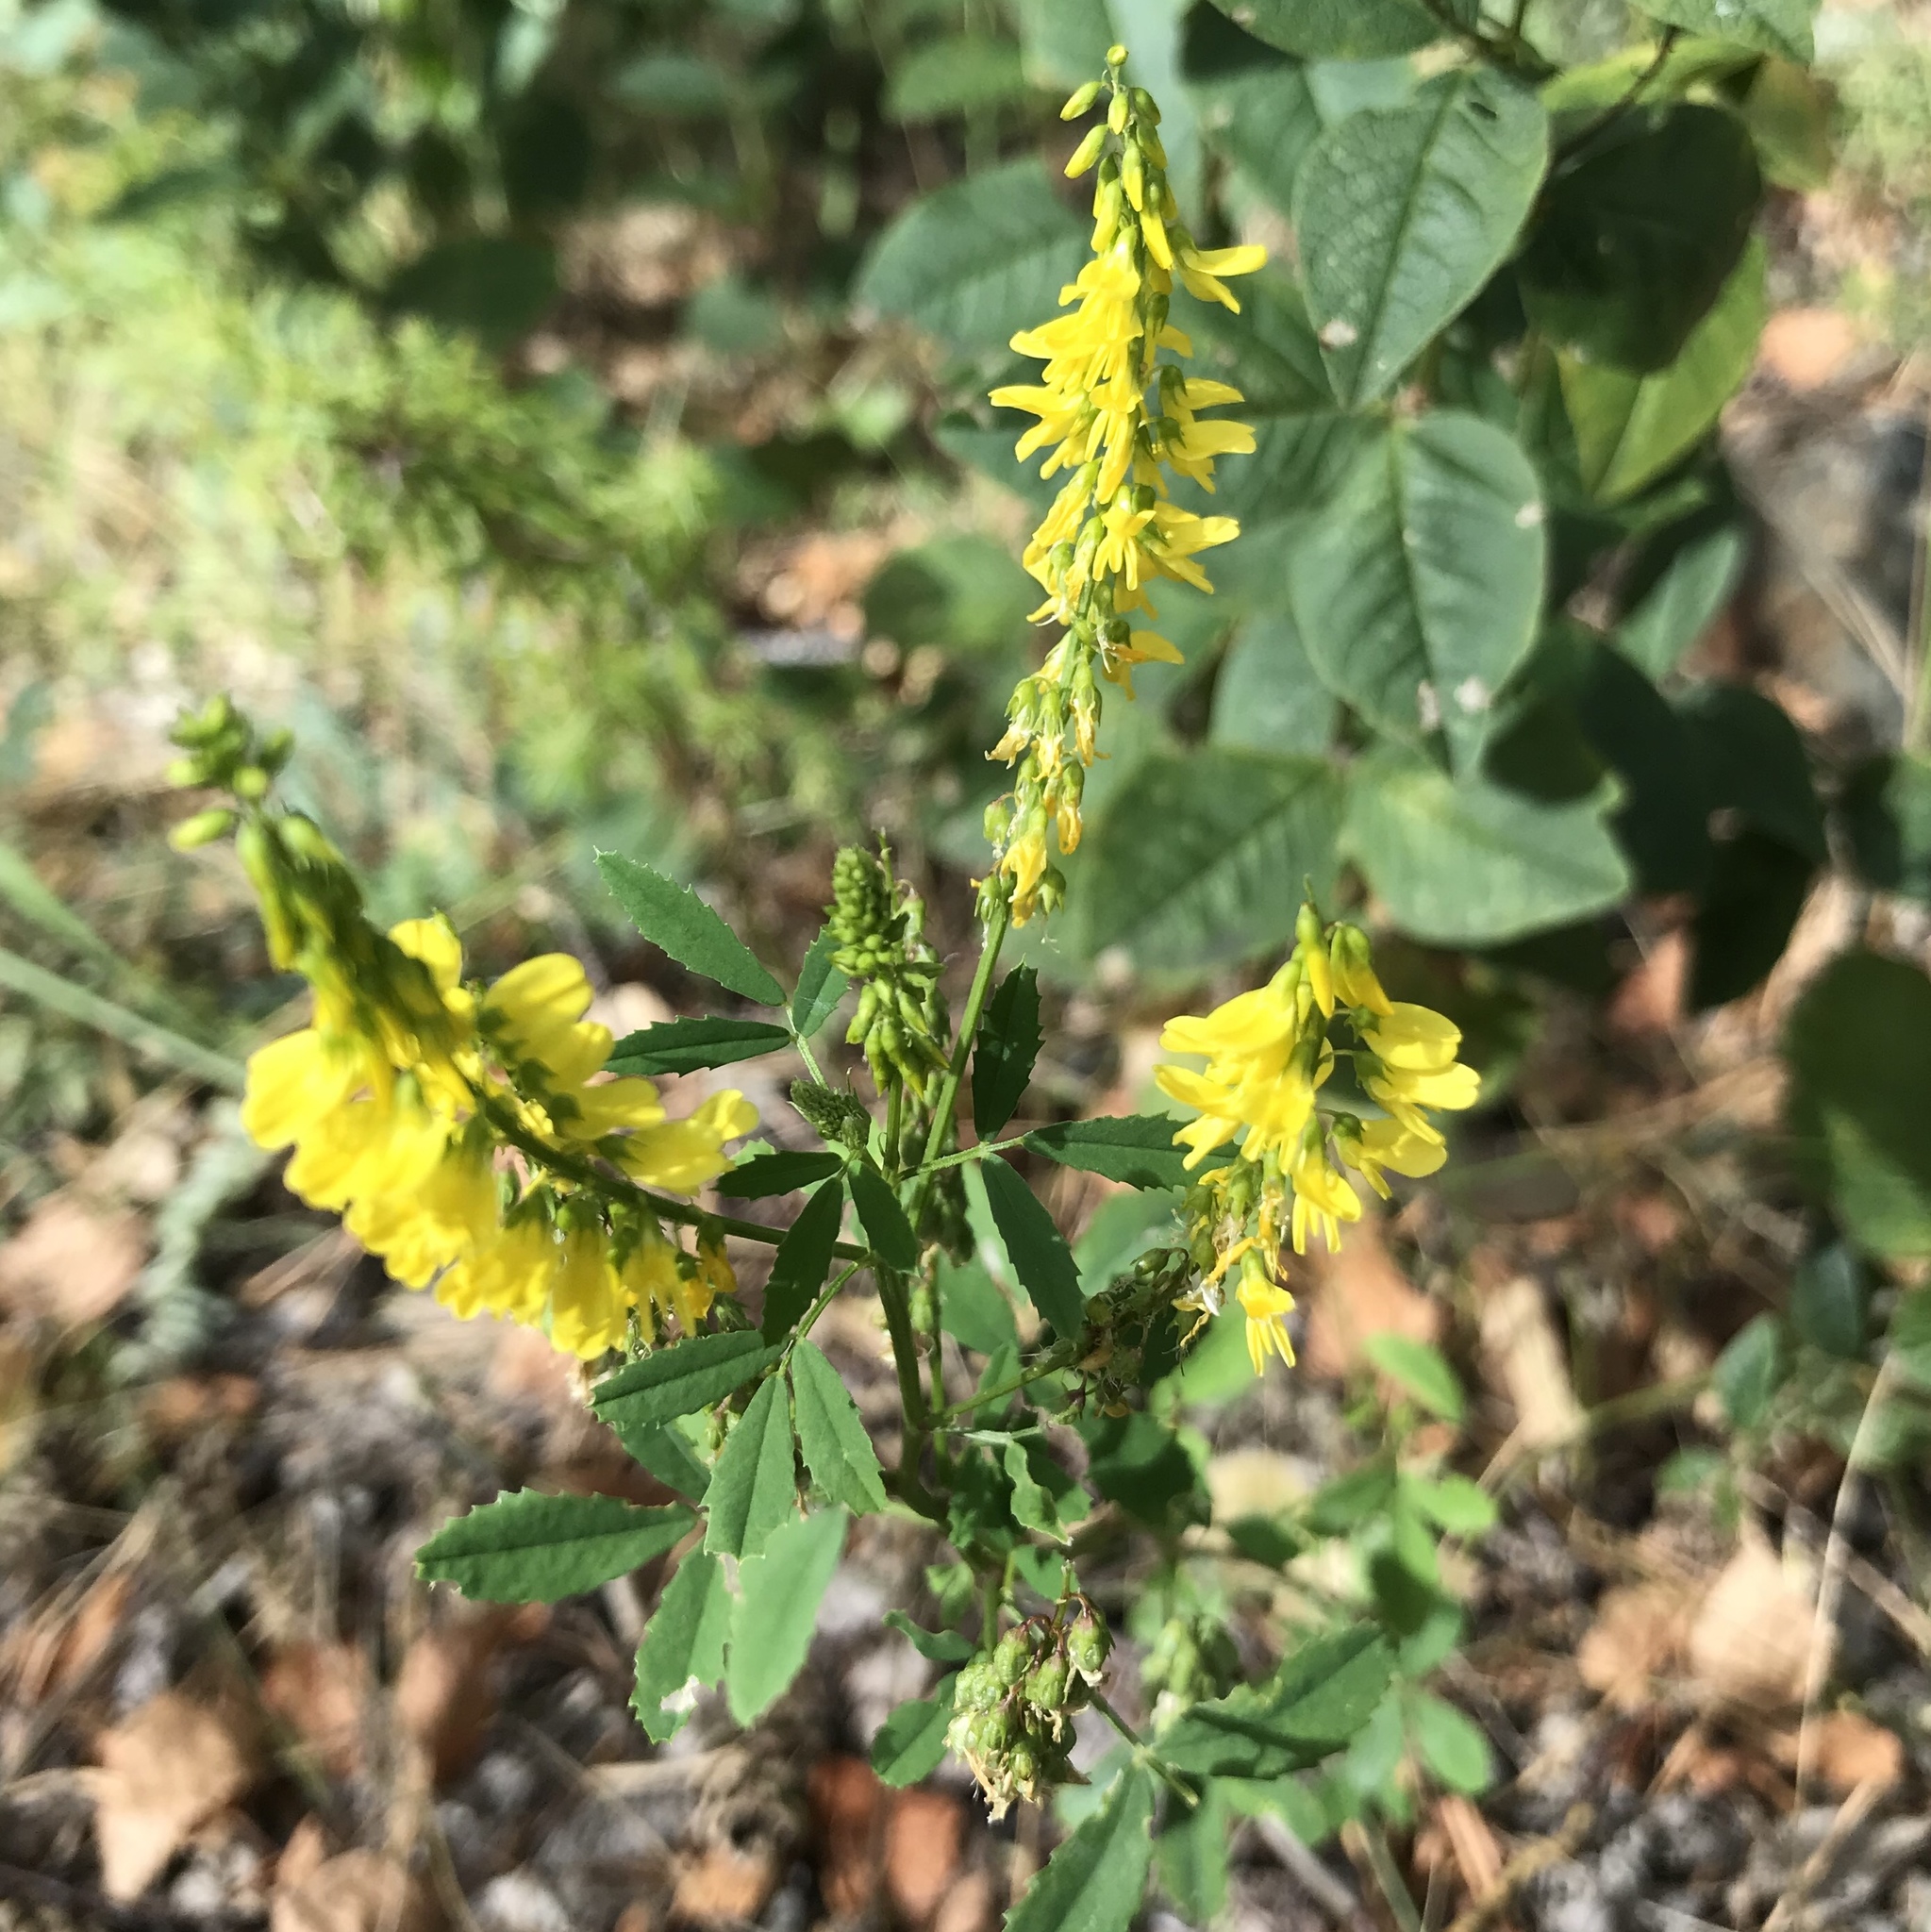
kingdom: Plantae
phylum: Tracheophyta
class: Magnoliopsida
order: Fabales
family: Fabaceae
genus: Melilotus
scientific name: Melilotus officinalis
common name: Sweetclover
